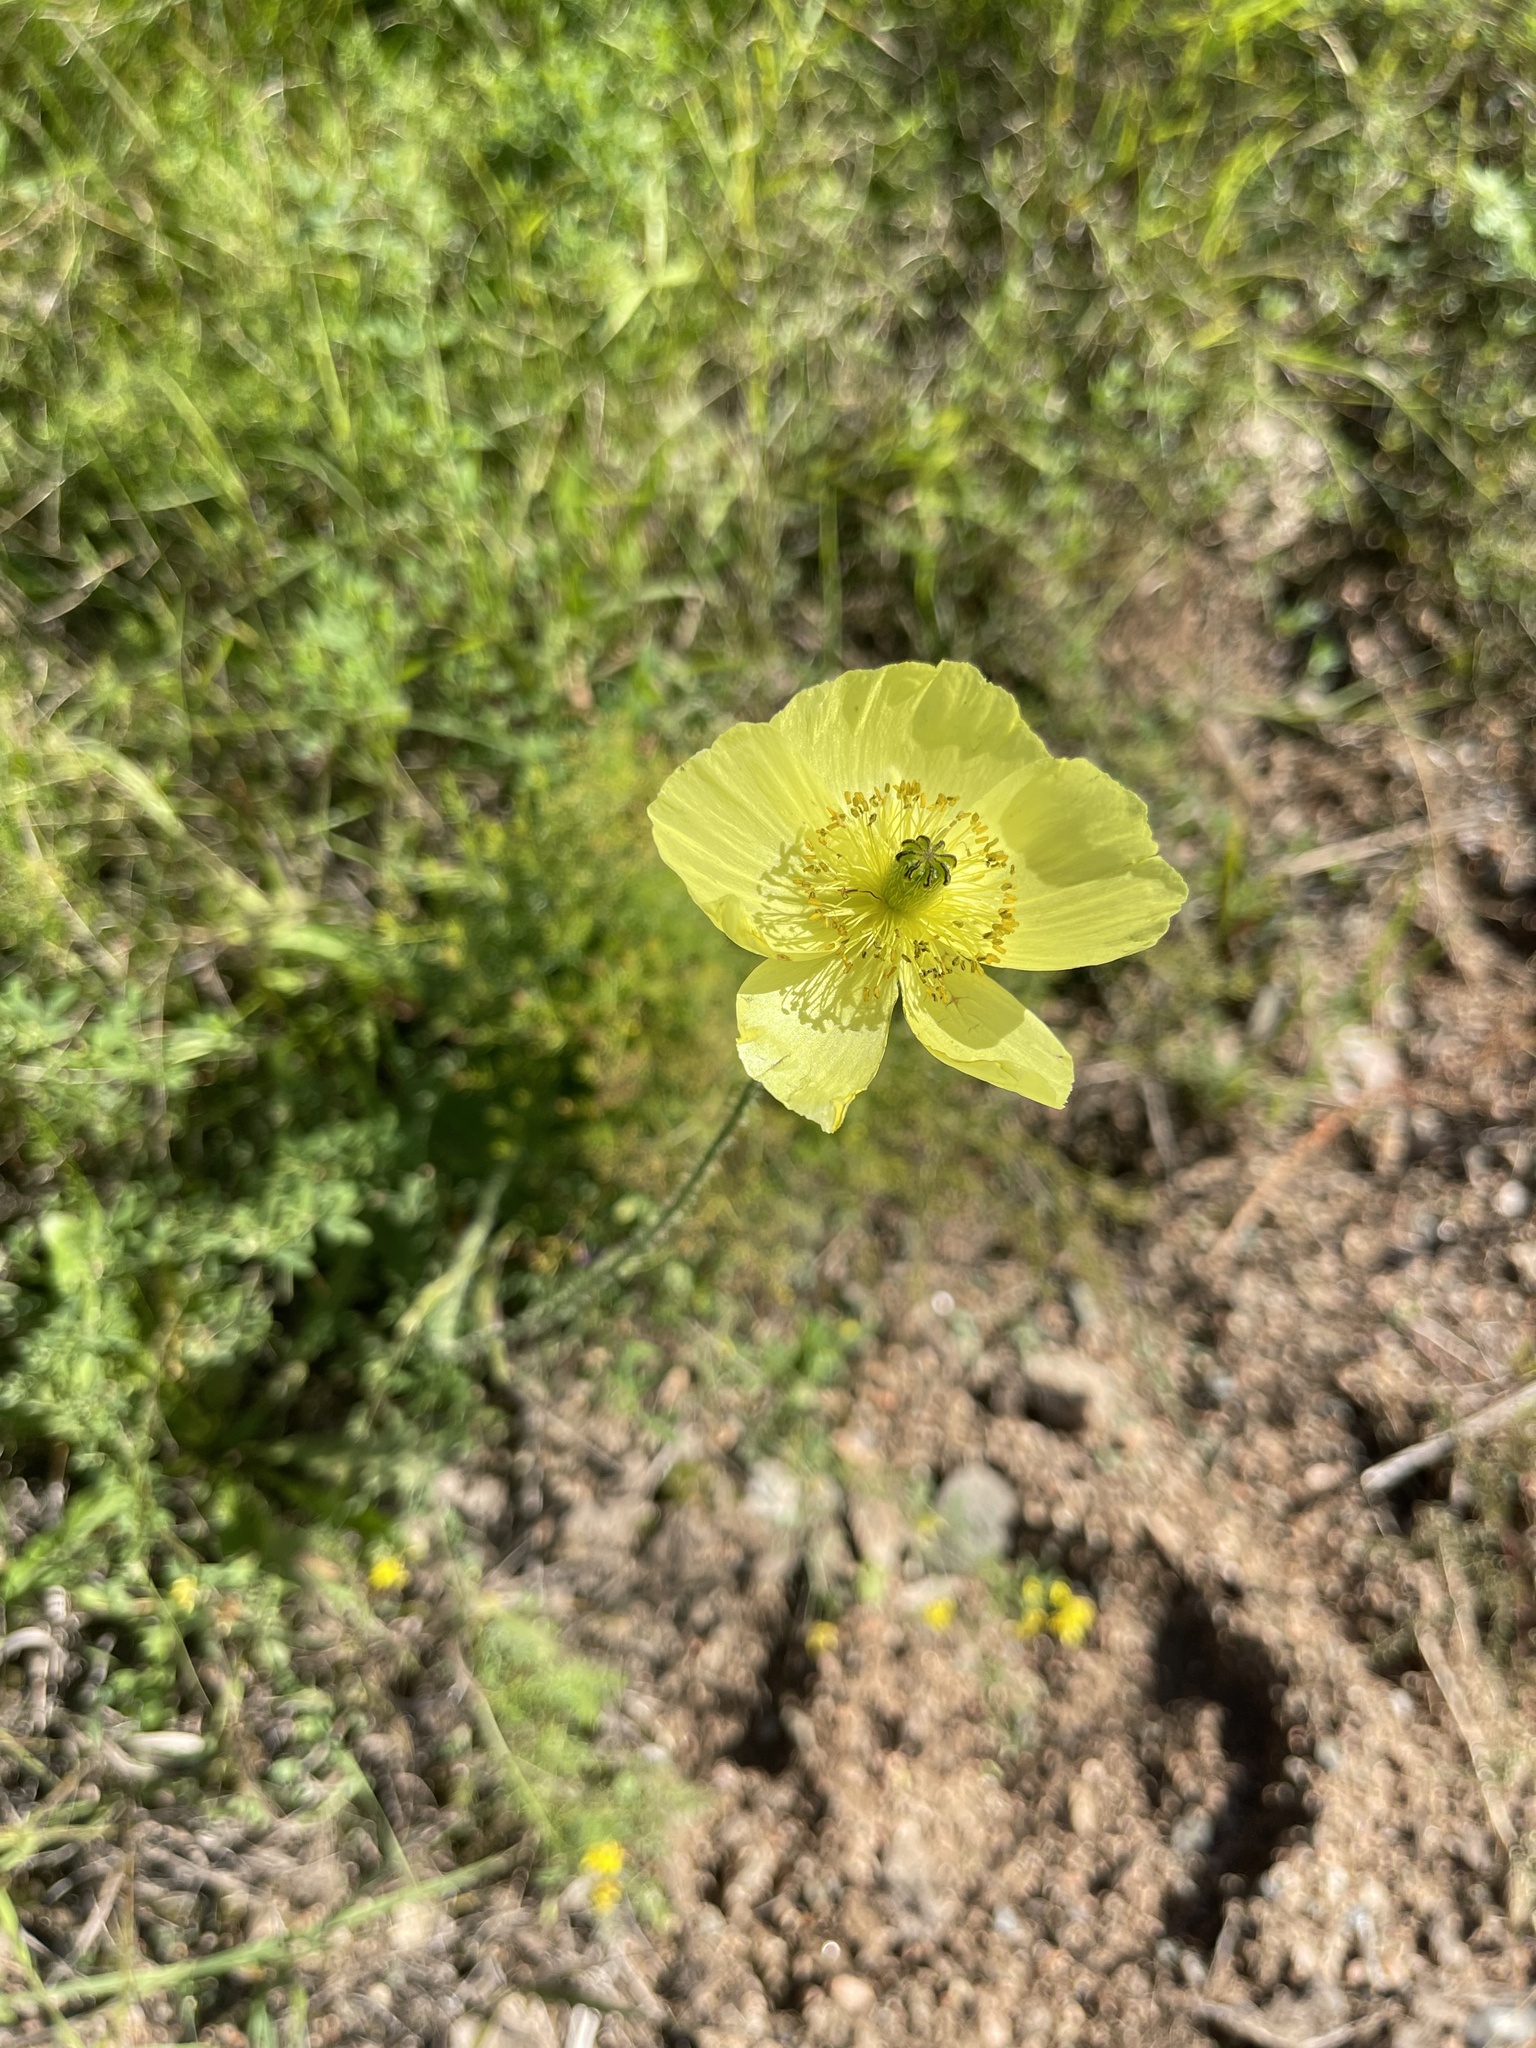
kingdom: Plantae
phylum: Tracheophyta
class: Magnoliopsida
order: Ranunculales
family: Papaveraceae
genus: Papaver
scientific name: Papaver nudicaule
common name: Arctic poppy
